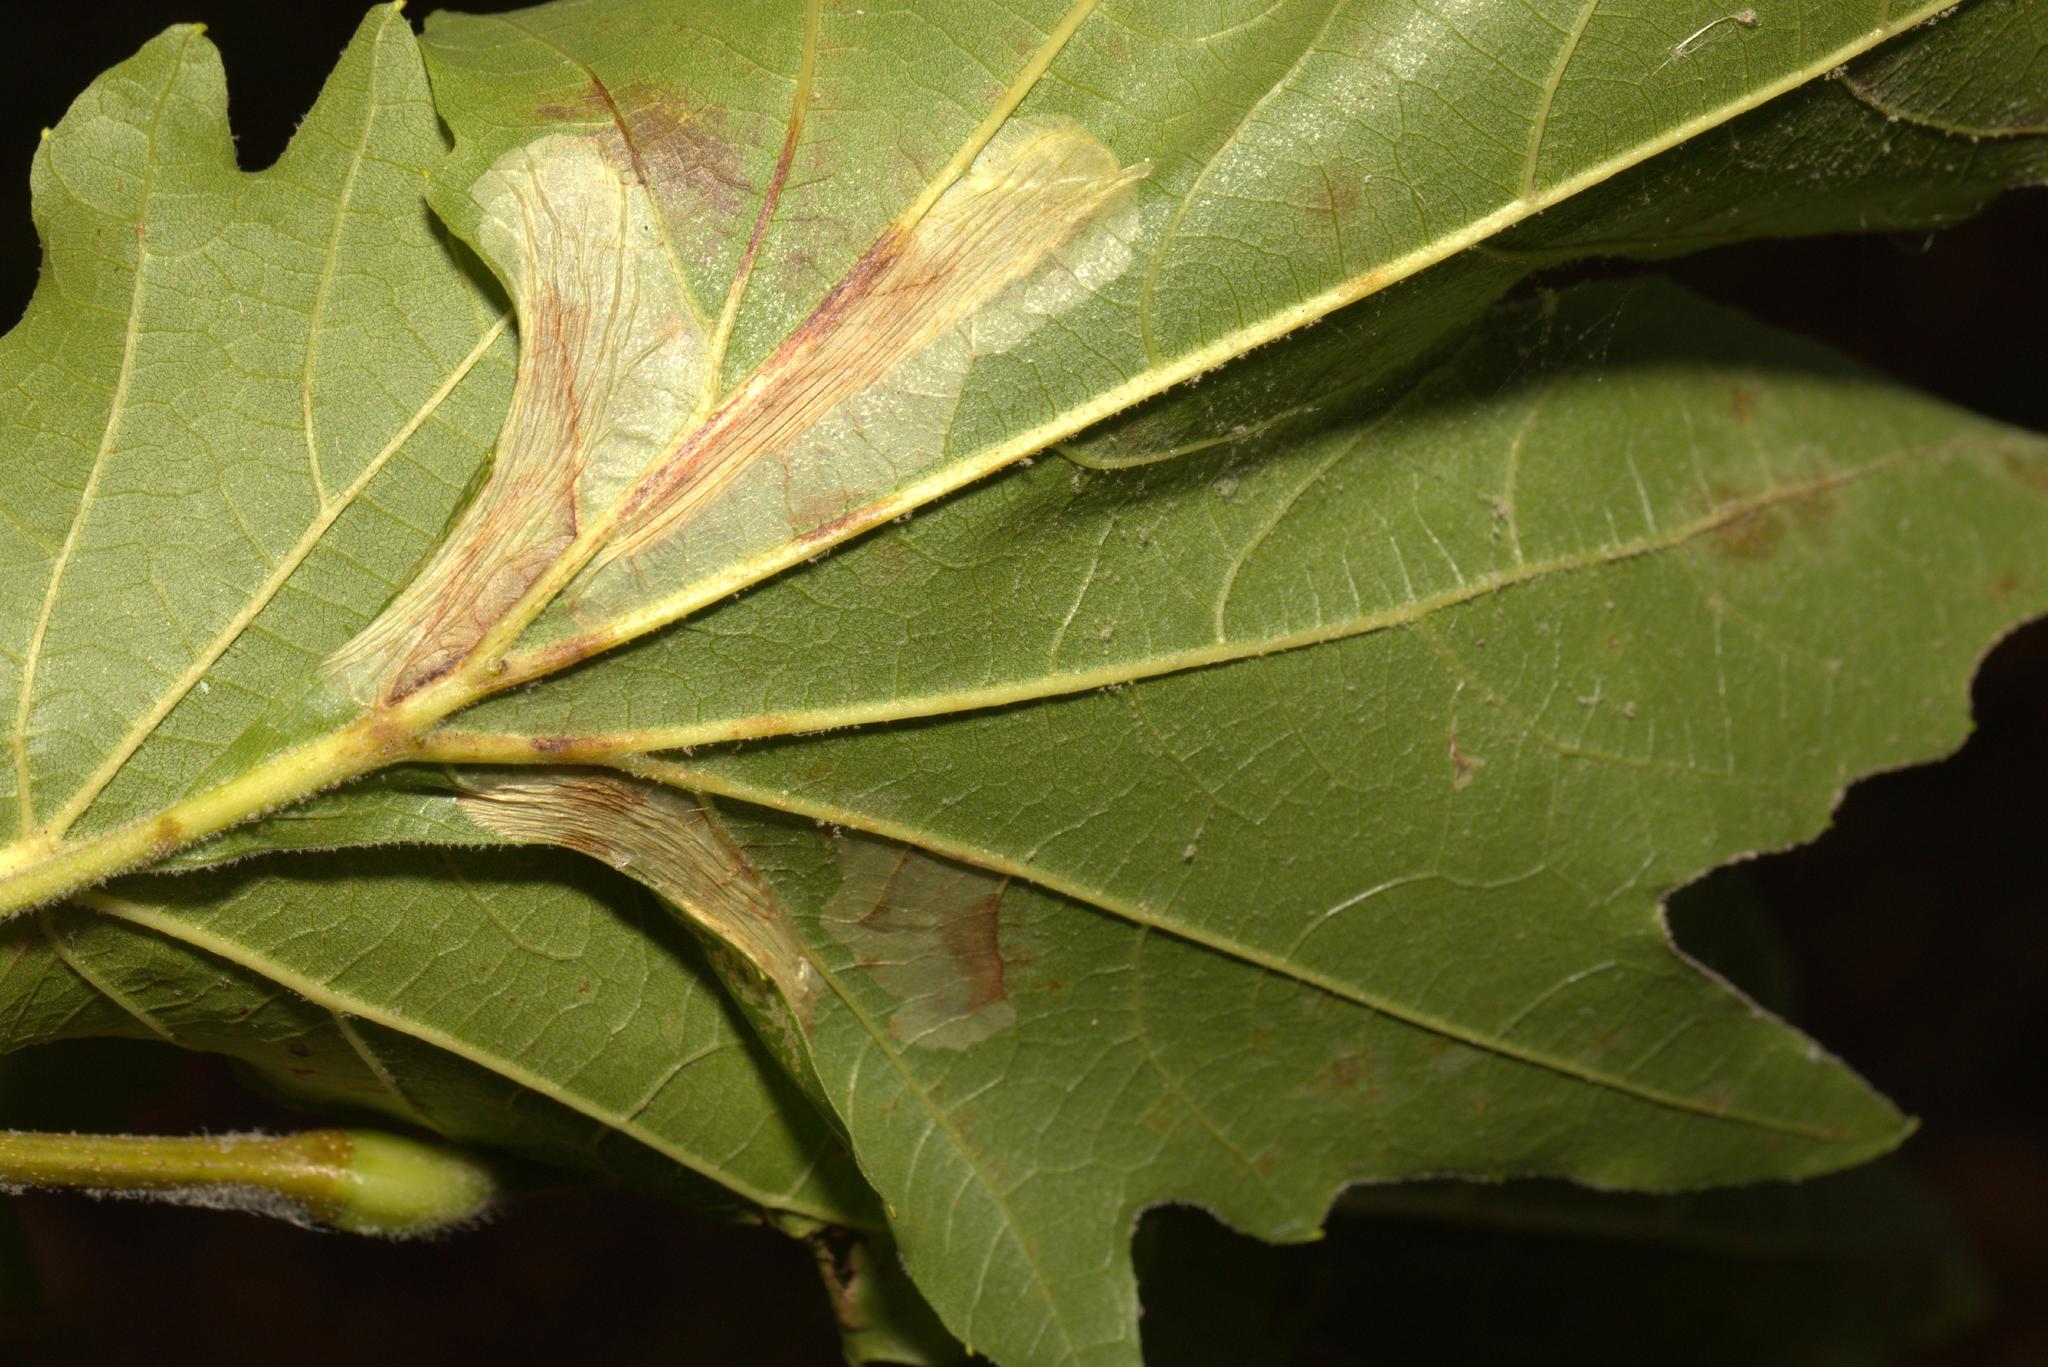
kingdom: Animalia
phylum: Arthropoda
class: Insecta
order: Lepidoptera
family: Gracillariidae
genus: Phyllonorycter
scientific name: Phyllonorycter platani
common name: London midget
